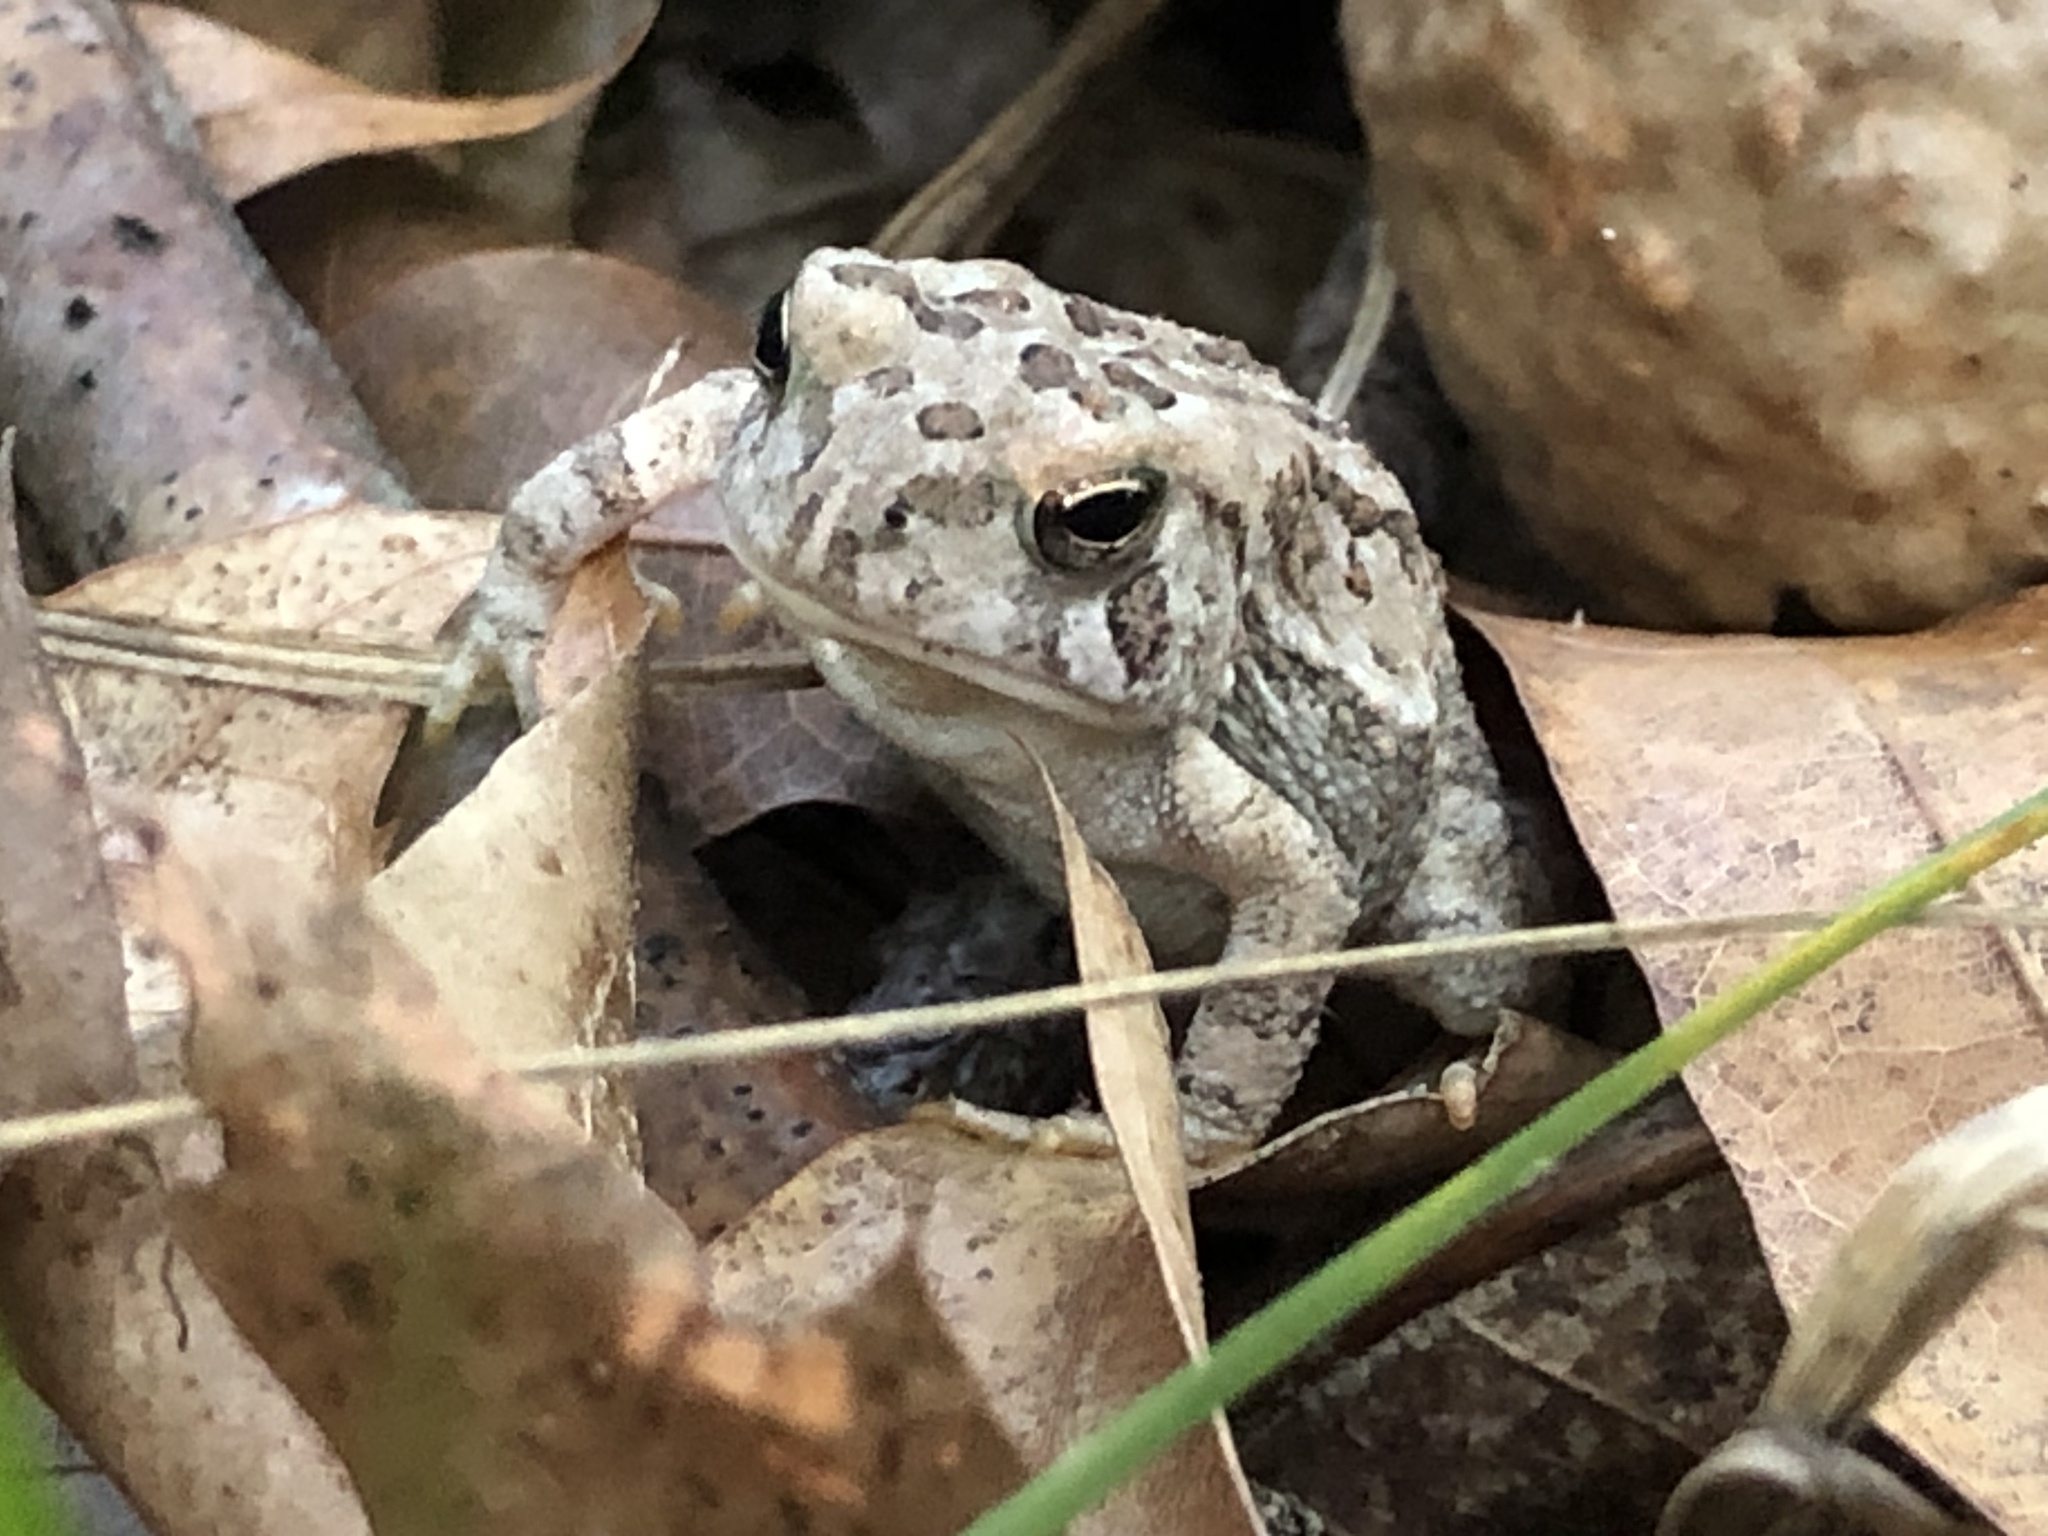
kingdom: Animalia
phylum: Chordata
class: Amphibia
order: Anura
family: Bufonidae
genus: Anaxyrus
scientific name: Anaxyrus fowleri
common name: Fowler's toad
